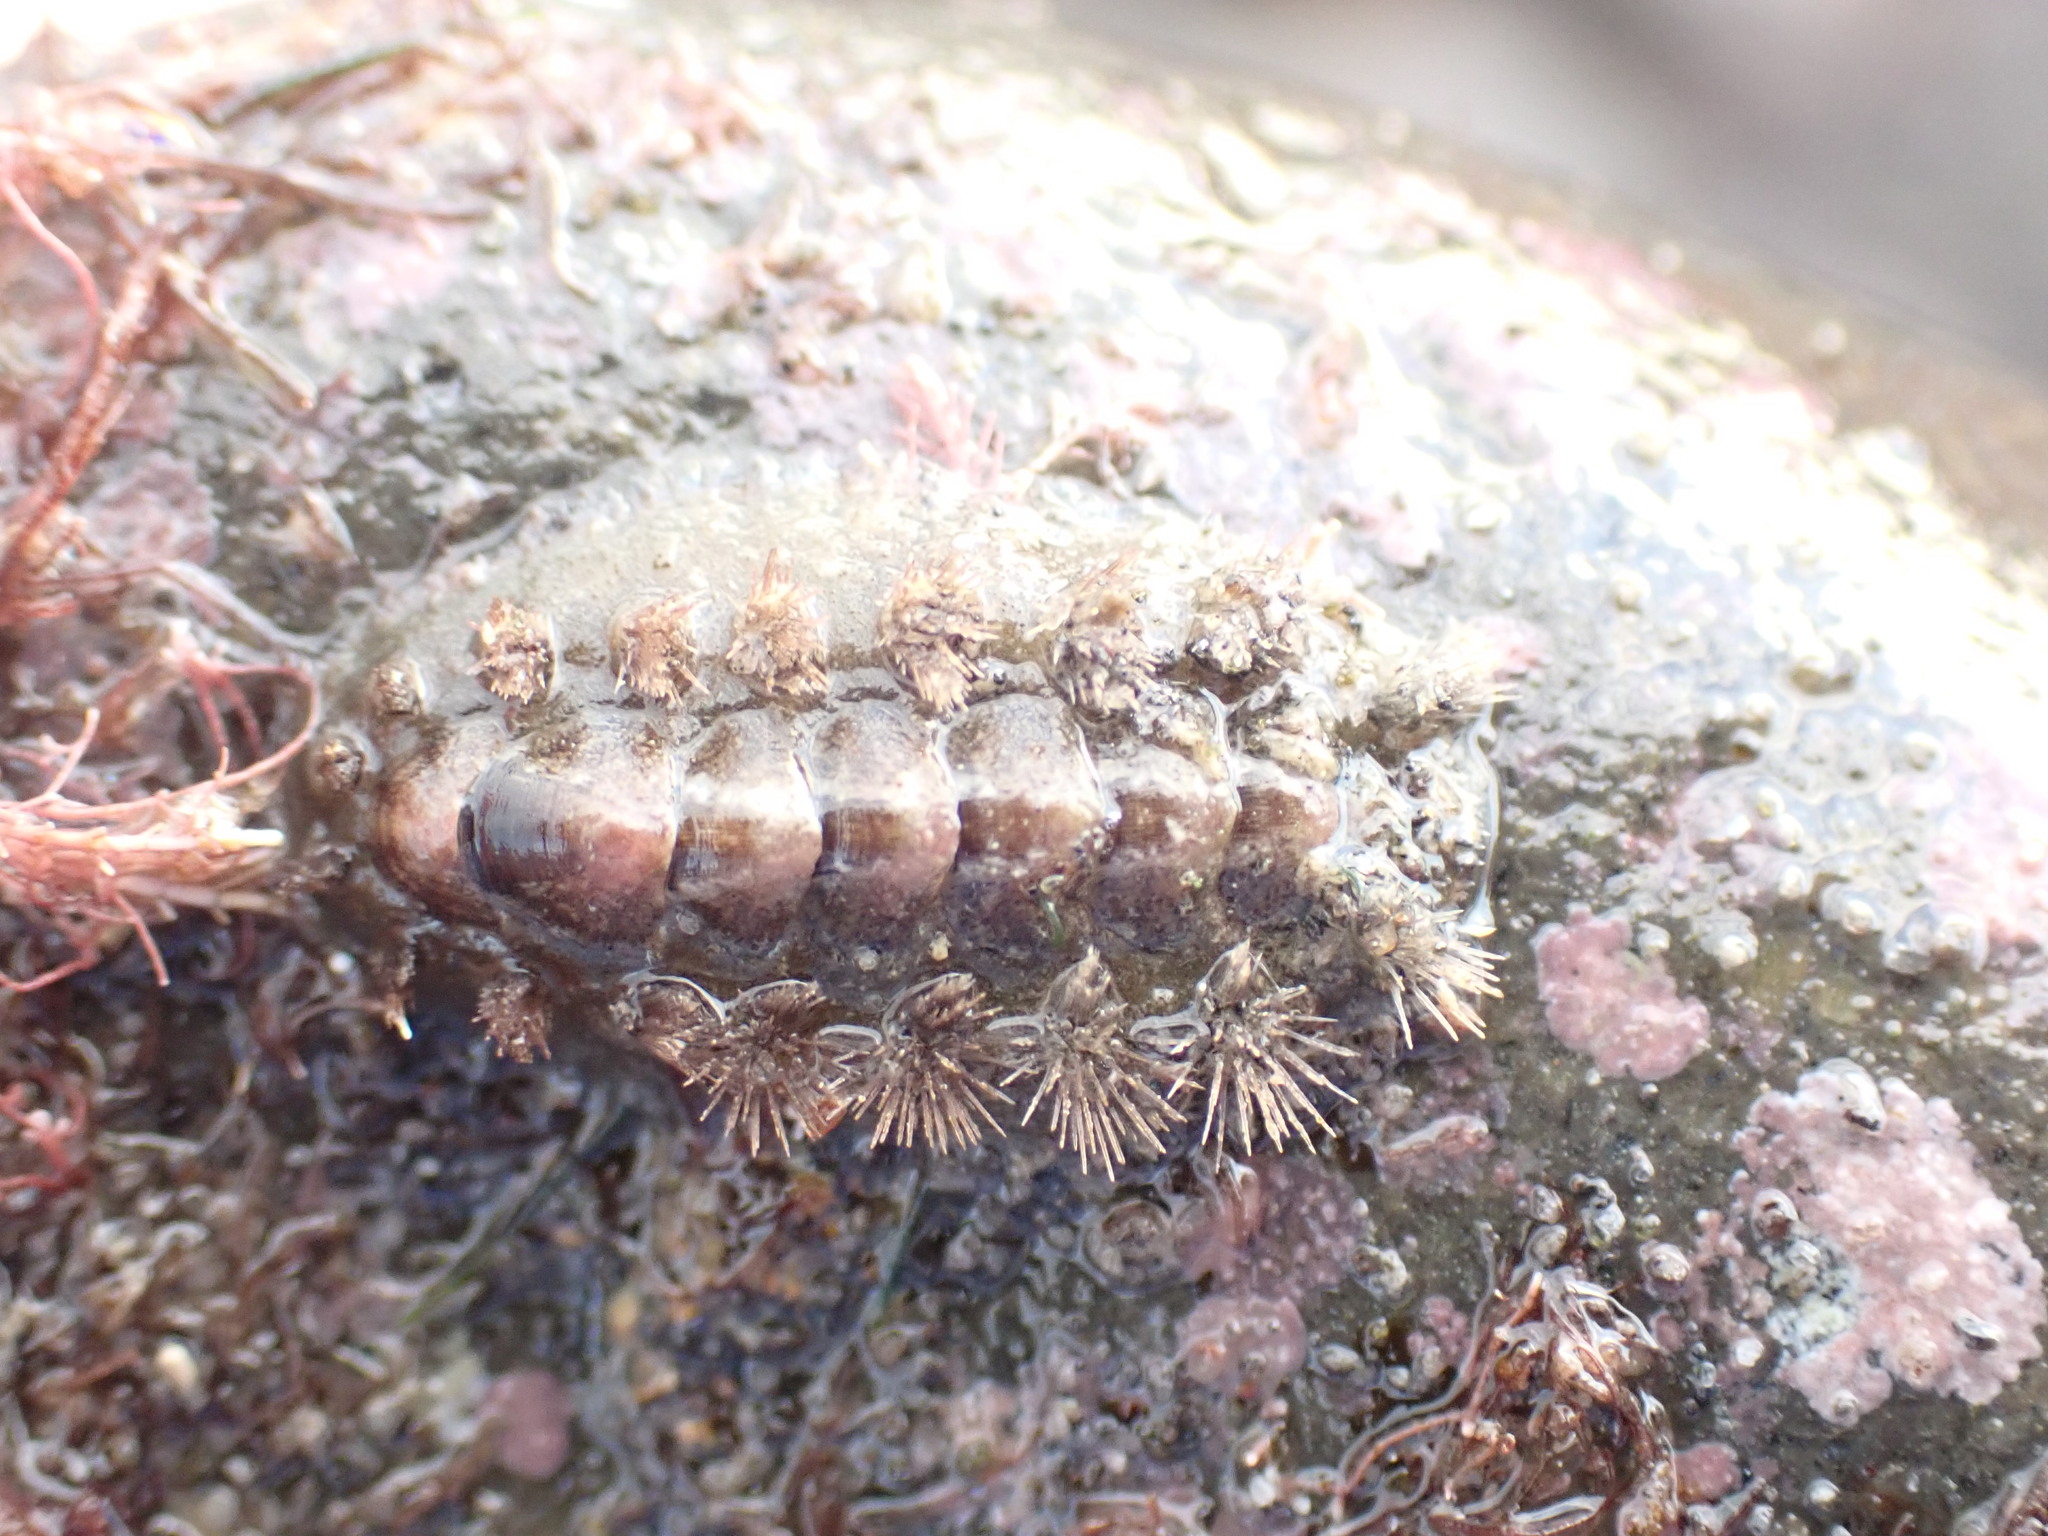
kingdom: Animalia
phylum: Mollusca
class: Polyplacophora
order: Chitonida
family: Acanthochitonidae
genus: Acanthochitona
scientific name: Acanthochitona zelandica
